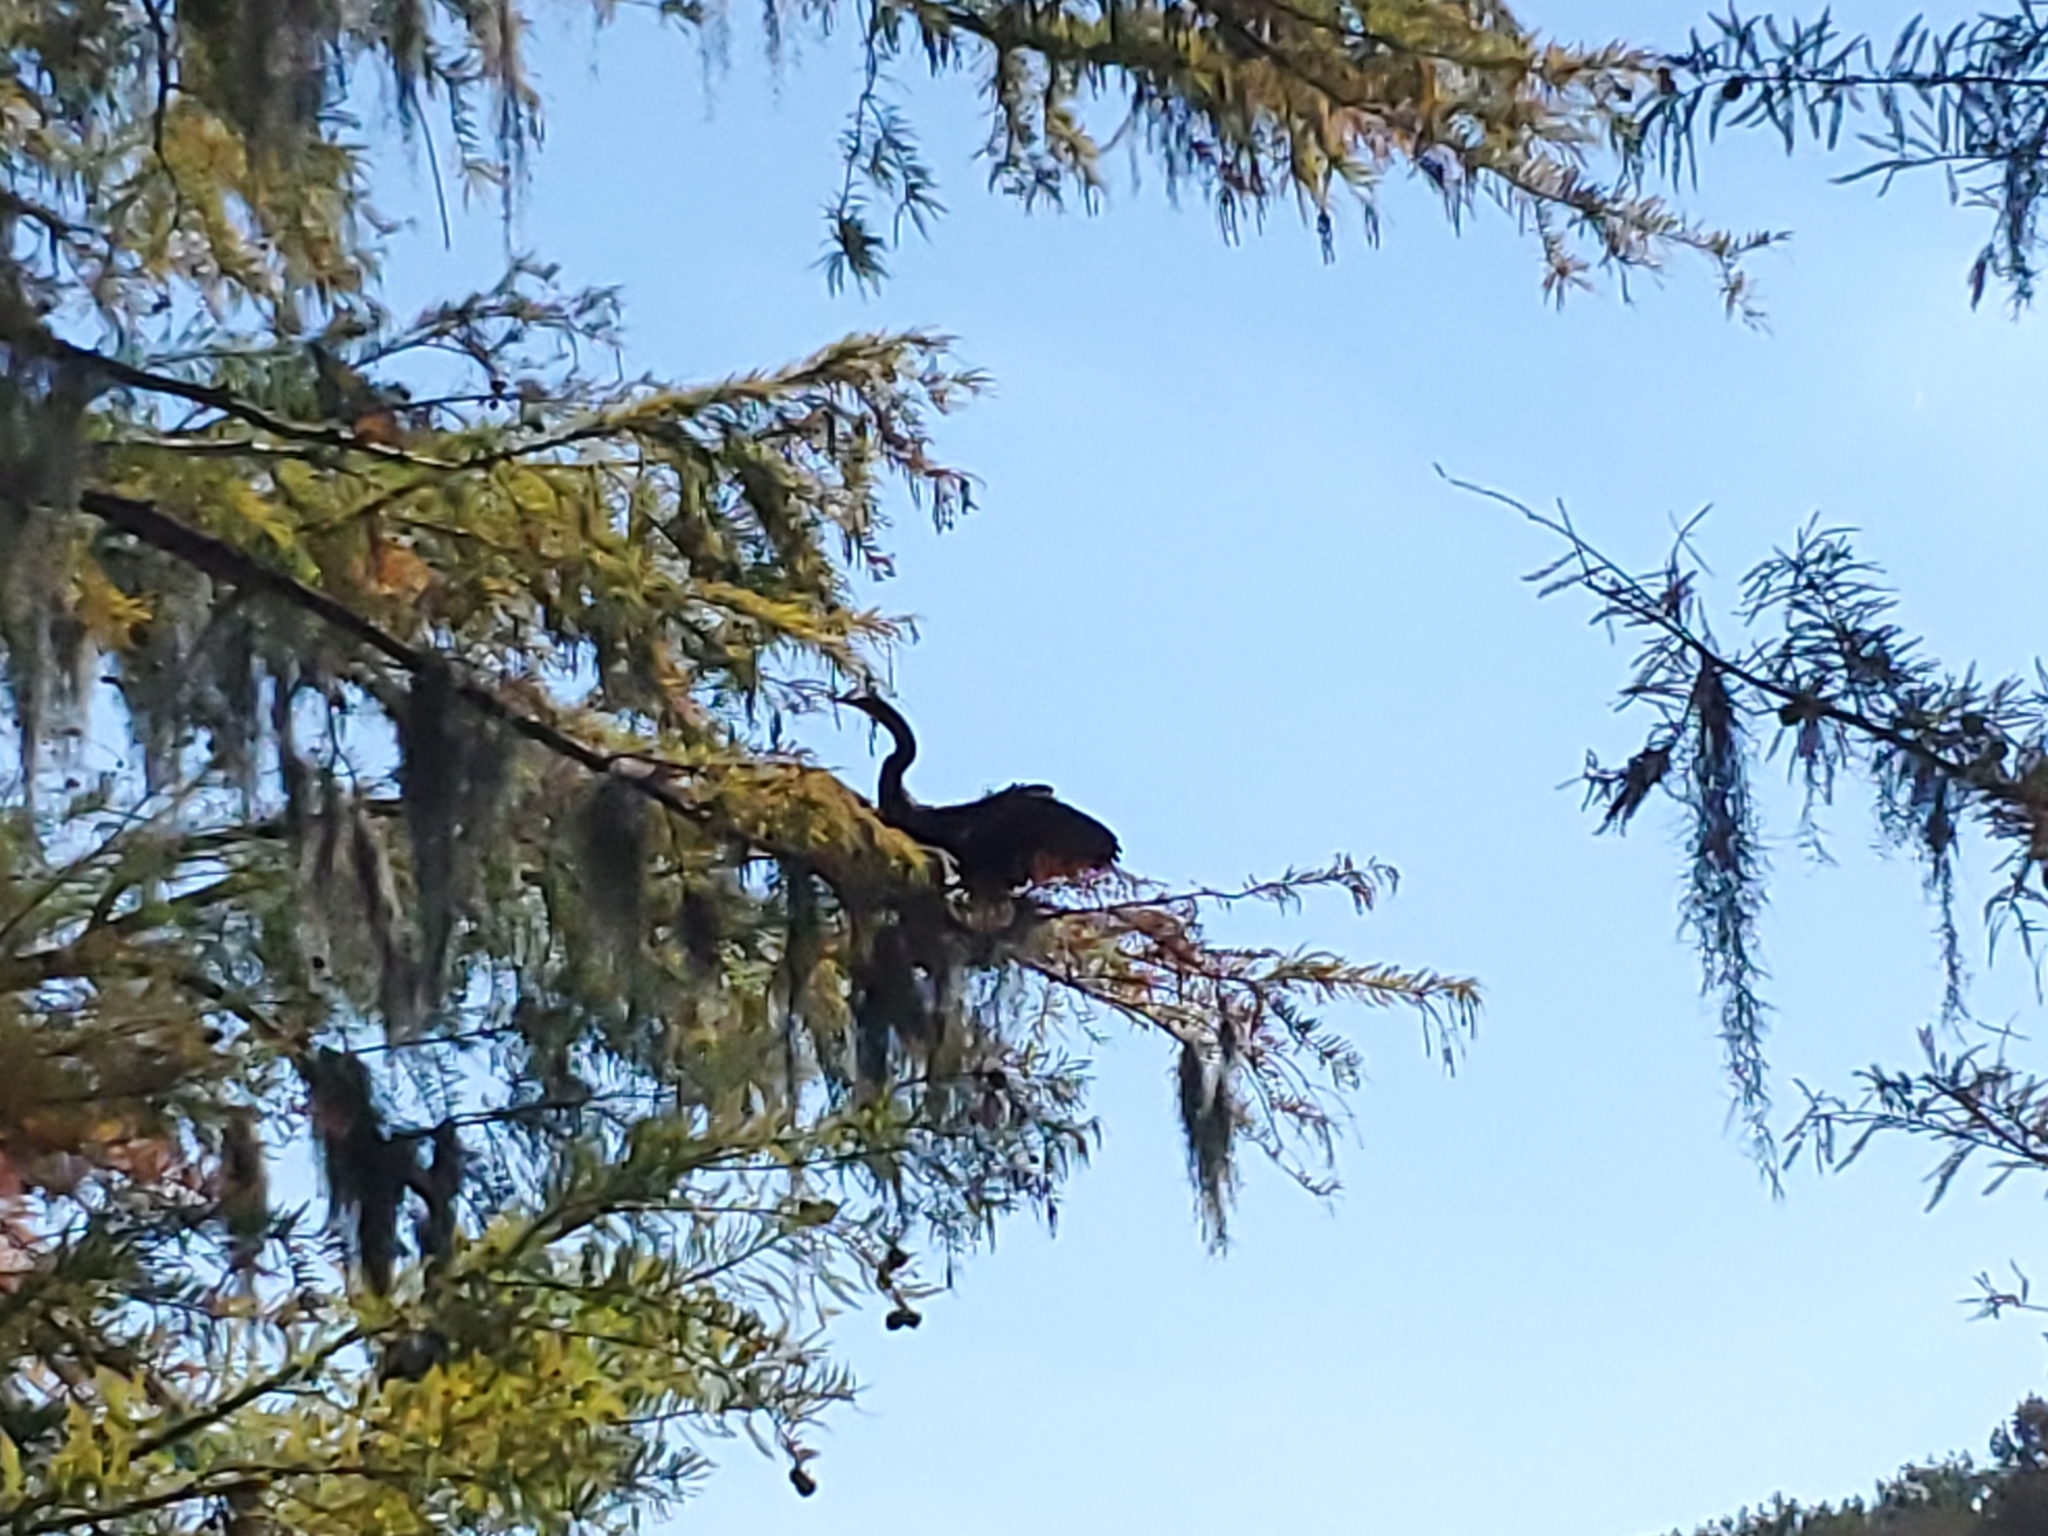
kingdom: Animalia
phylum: Chordata
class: Aves
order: Suliformes
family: Anhingidae
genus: Anhinga
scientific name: Anhinga anhinga
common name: Anhinga
